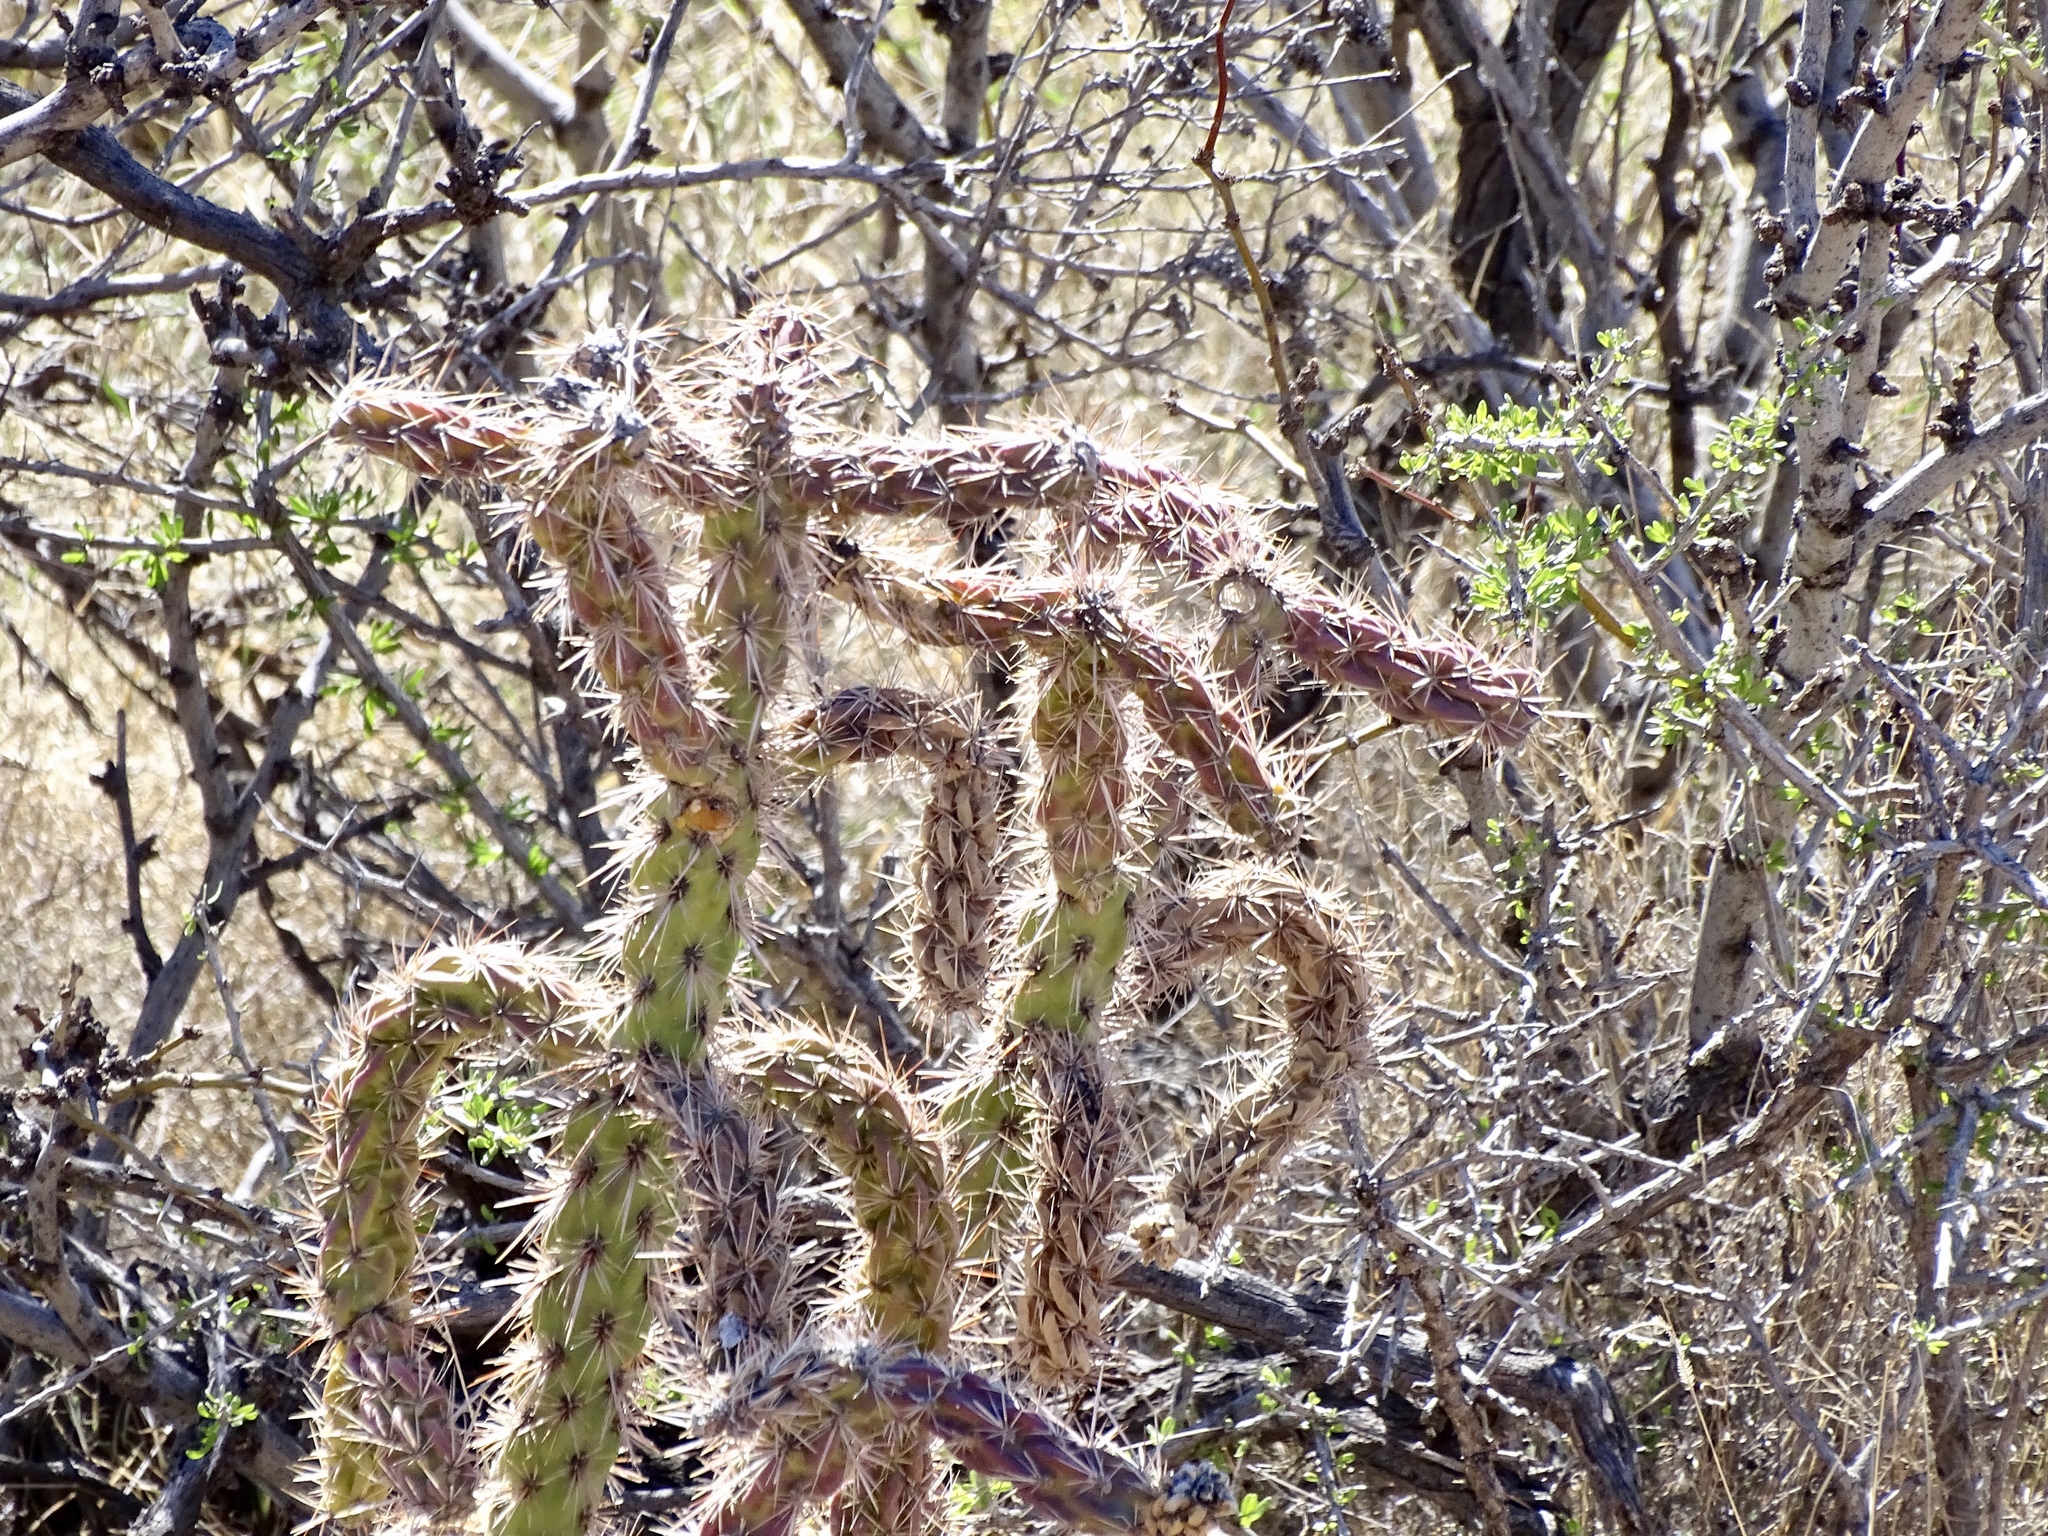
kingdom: Plantae
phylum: Tracheophyta
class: Magnoliopsida
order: Caryophyllales
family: Cactaceae
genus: Cylindropuntia
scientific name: Cylindropuntia imbricata
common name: Candelabrum cactus
